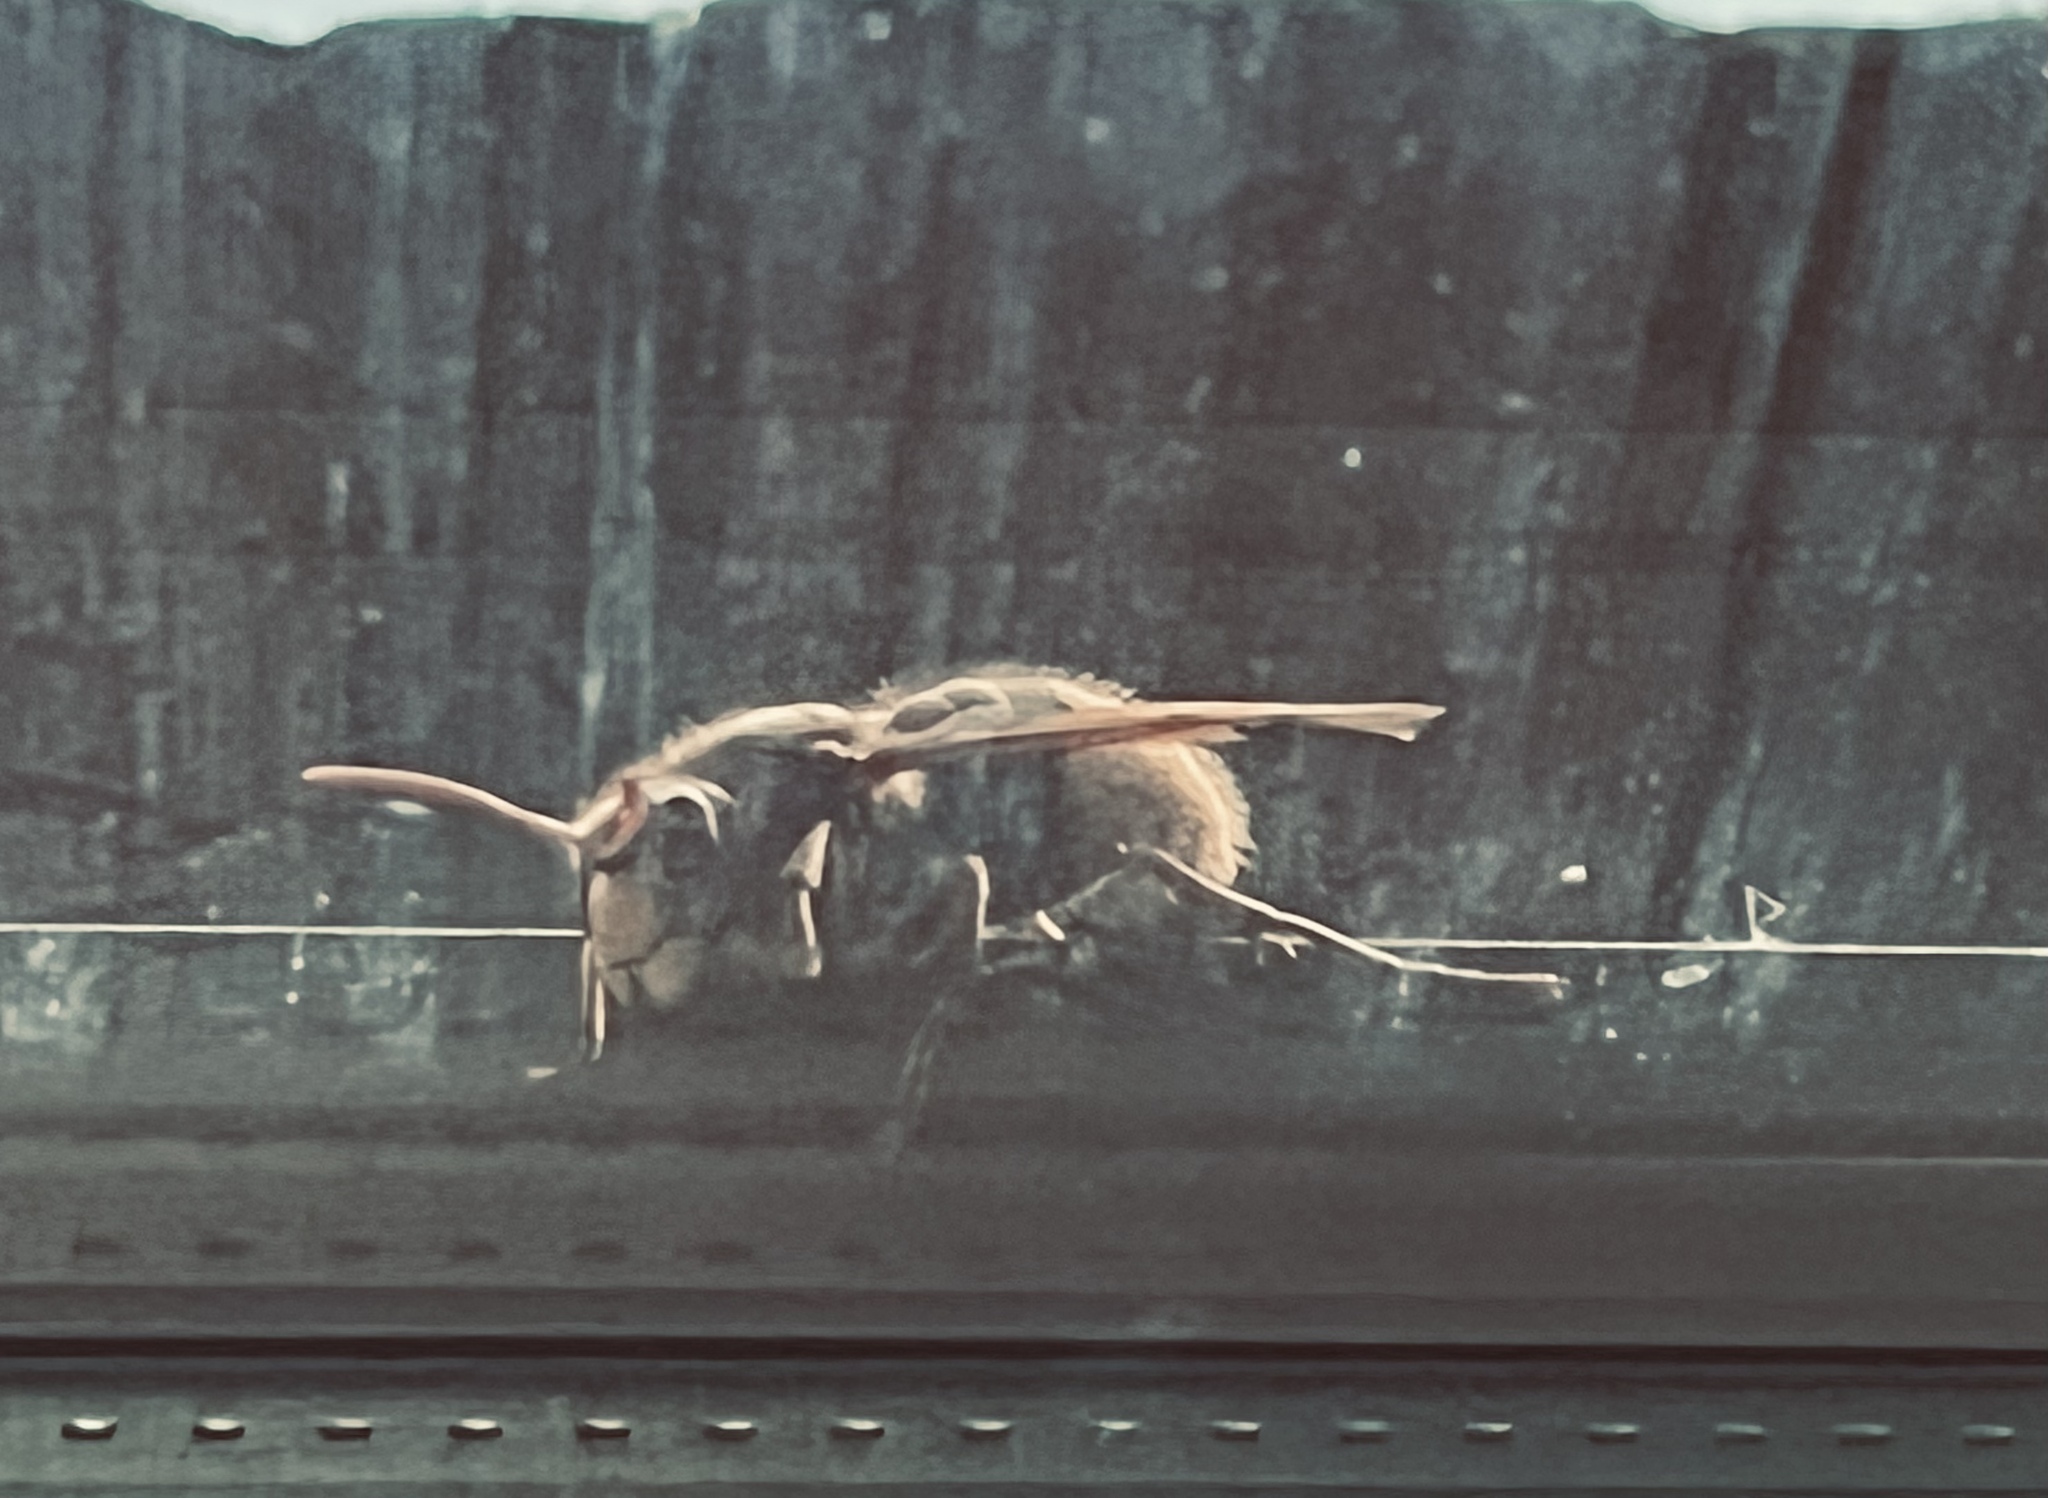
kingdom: Animalia
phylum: Arthropoda
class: Insecta
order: Hymenoptera
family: Vespidae
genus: Vespa
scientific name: Vespa crabro
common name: Hornet
